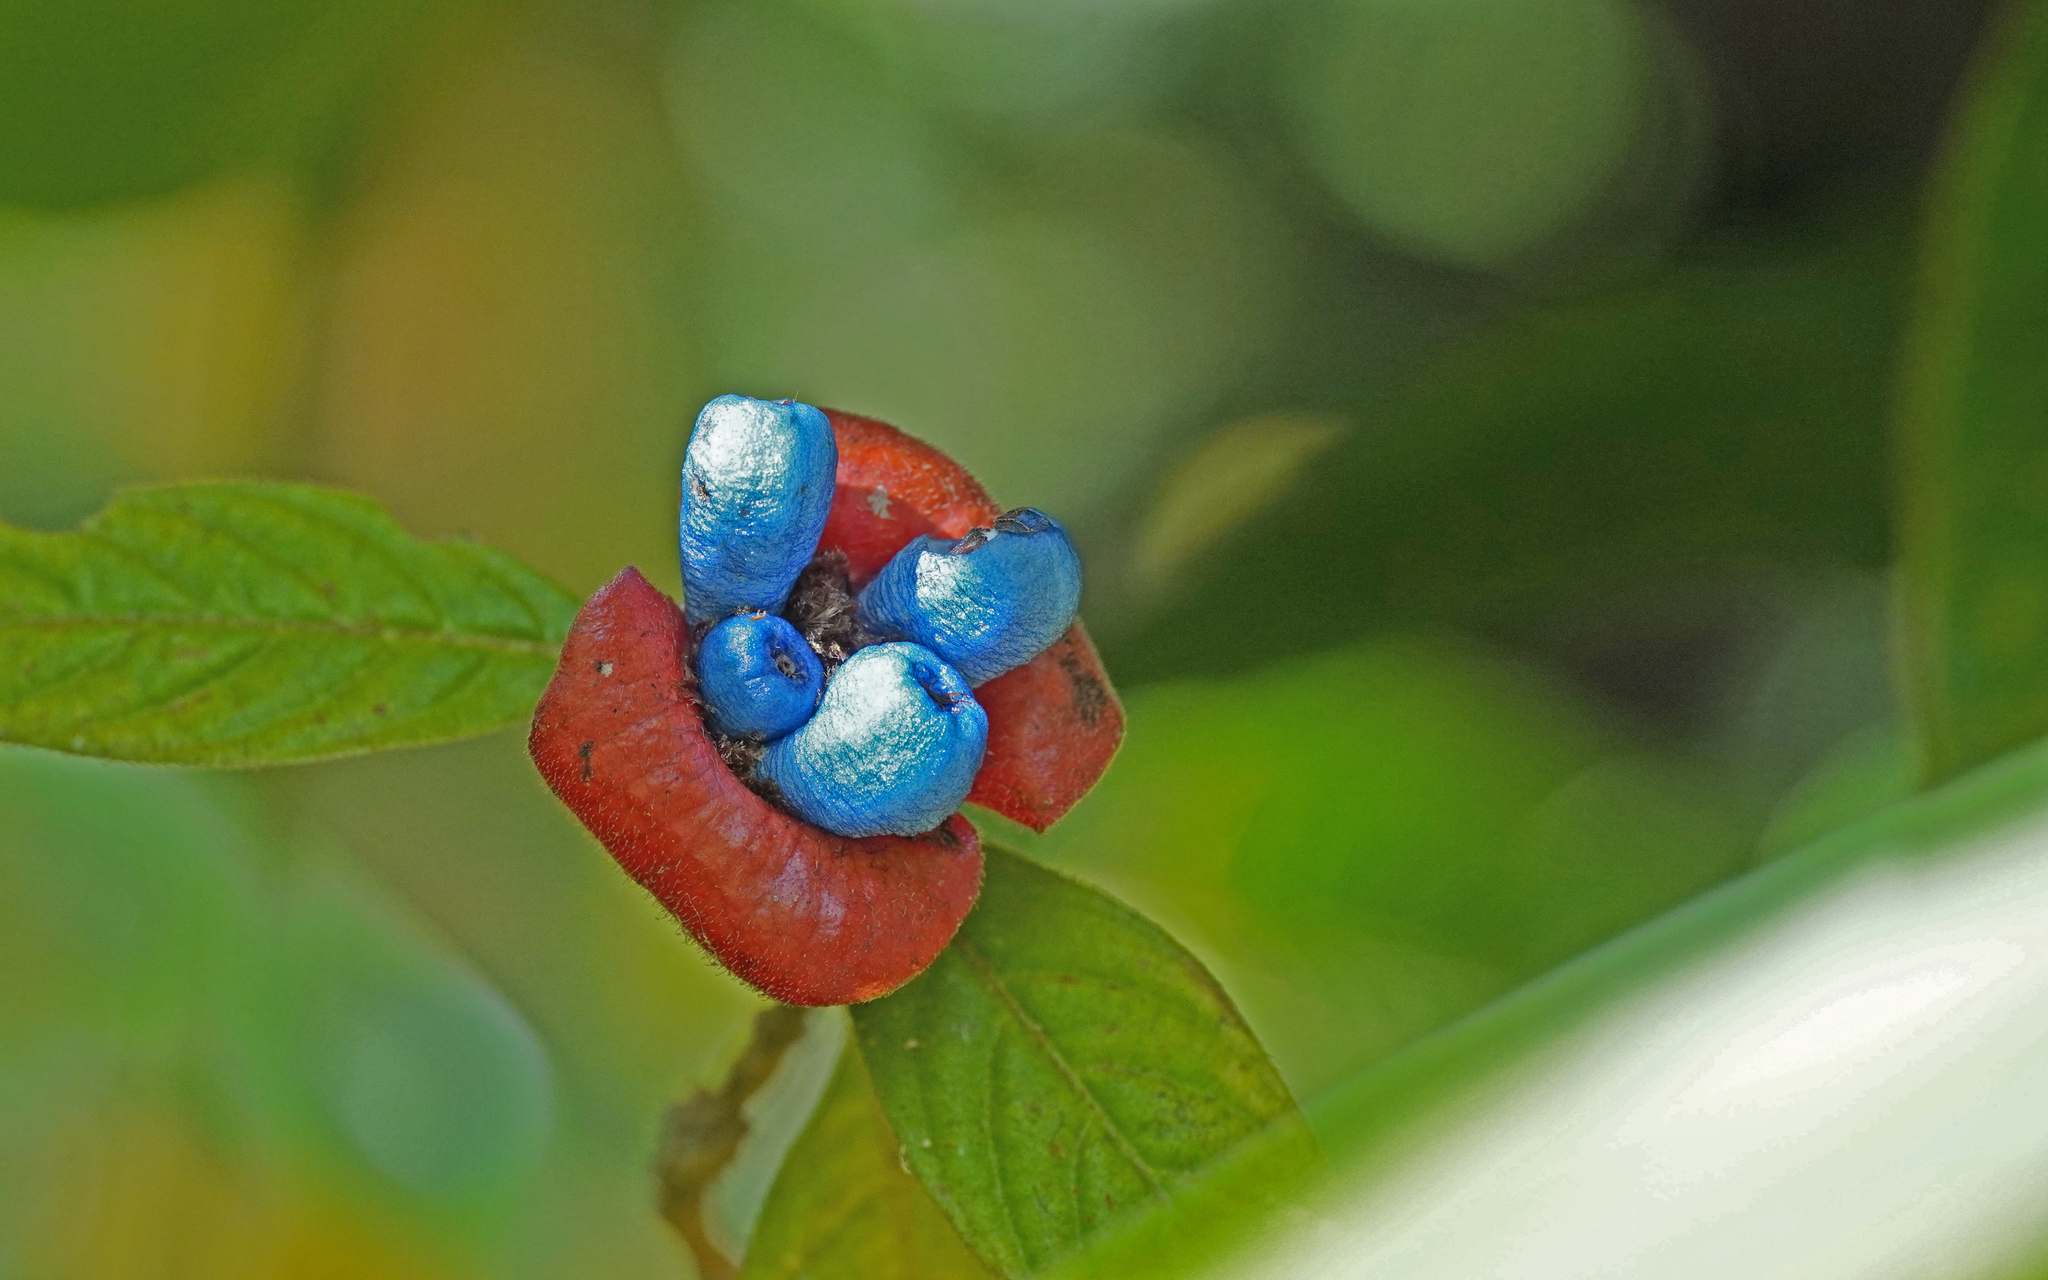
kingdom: Plantae
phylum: Tracheophyta
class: Magnoliopsida
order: Gentianales
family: Rubiaceae
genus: Palicourea
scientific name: Palicourea tomentosa
